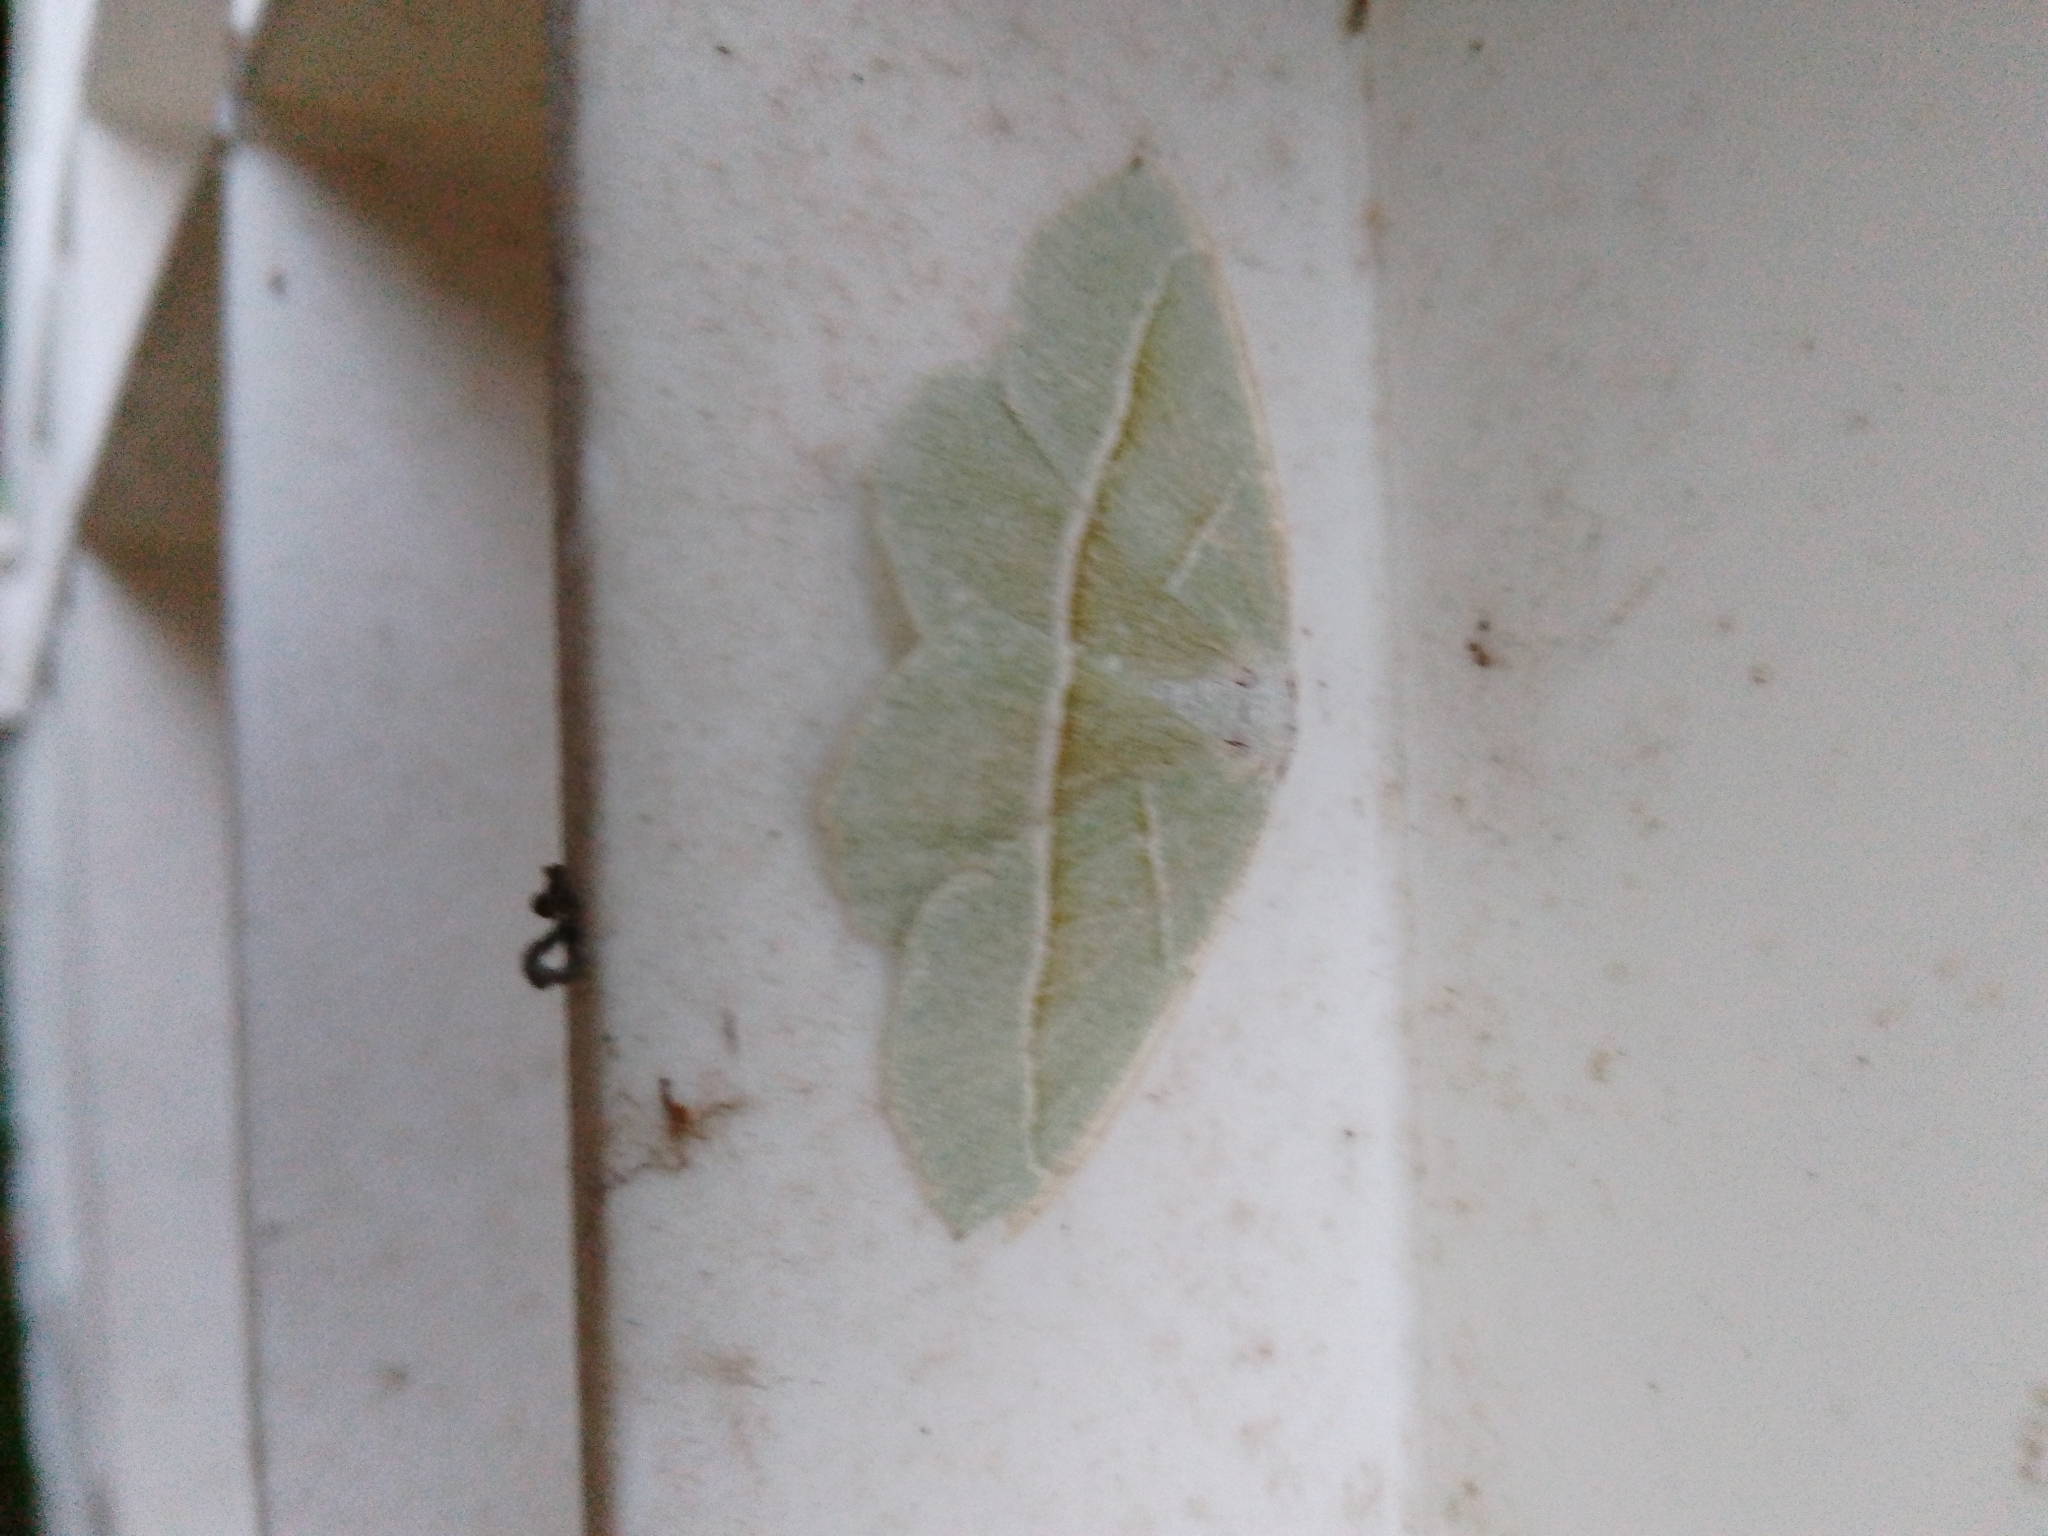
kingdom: Animalia
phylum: Arthropoda
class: Insecta
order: Lepidoptera
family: Geometridae
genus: Campaea
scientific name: Campaea margaritaria
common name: Light emerald
